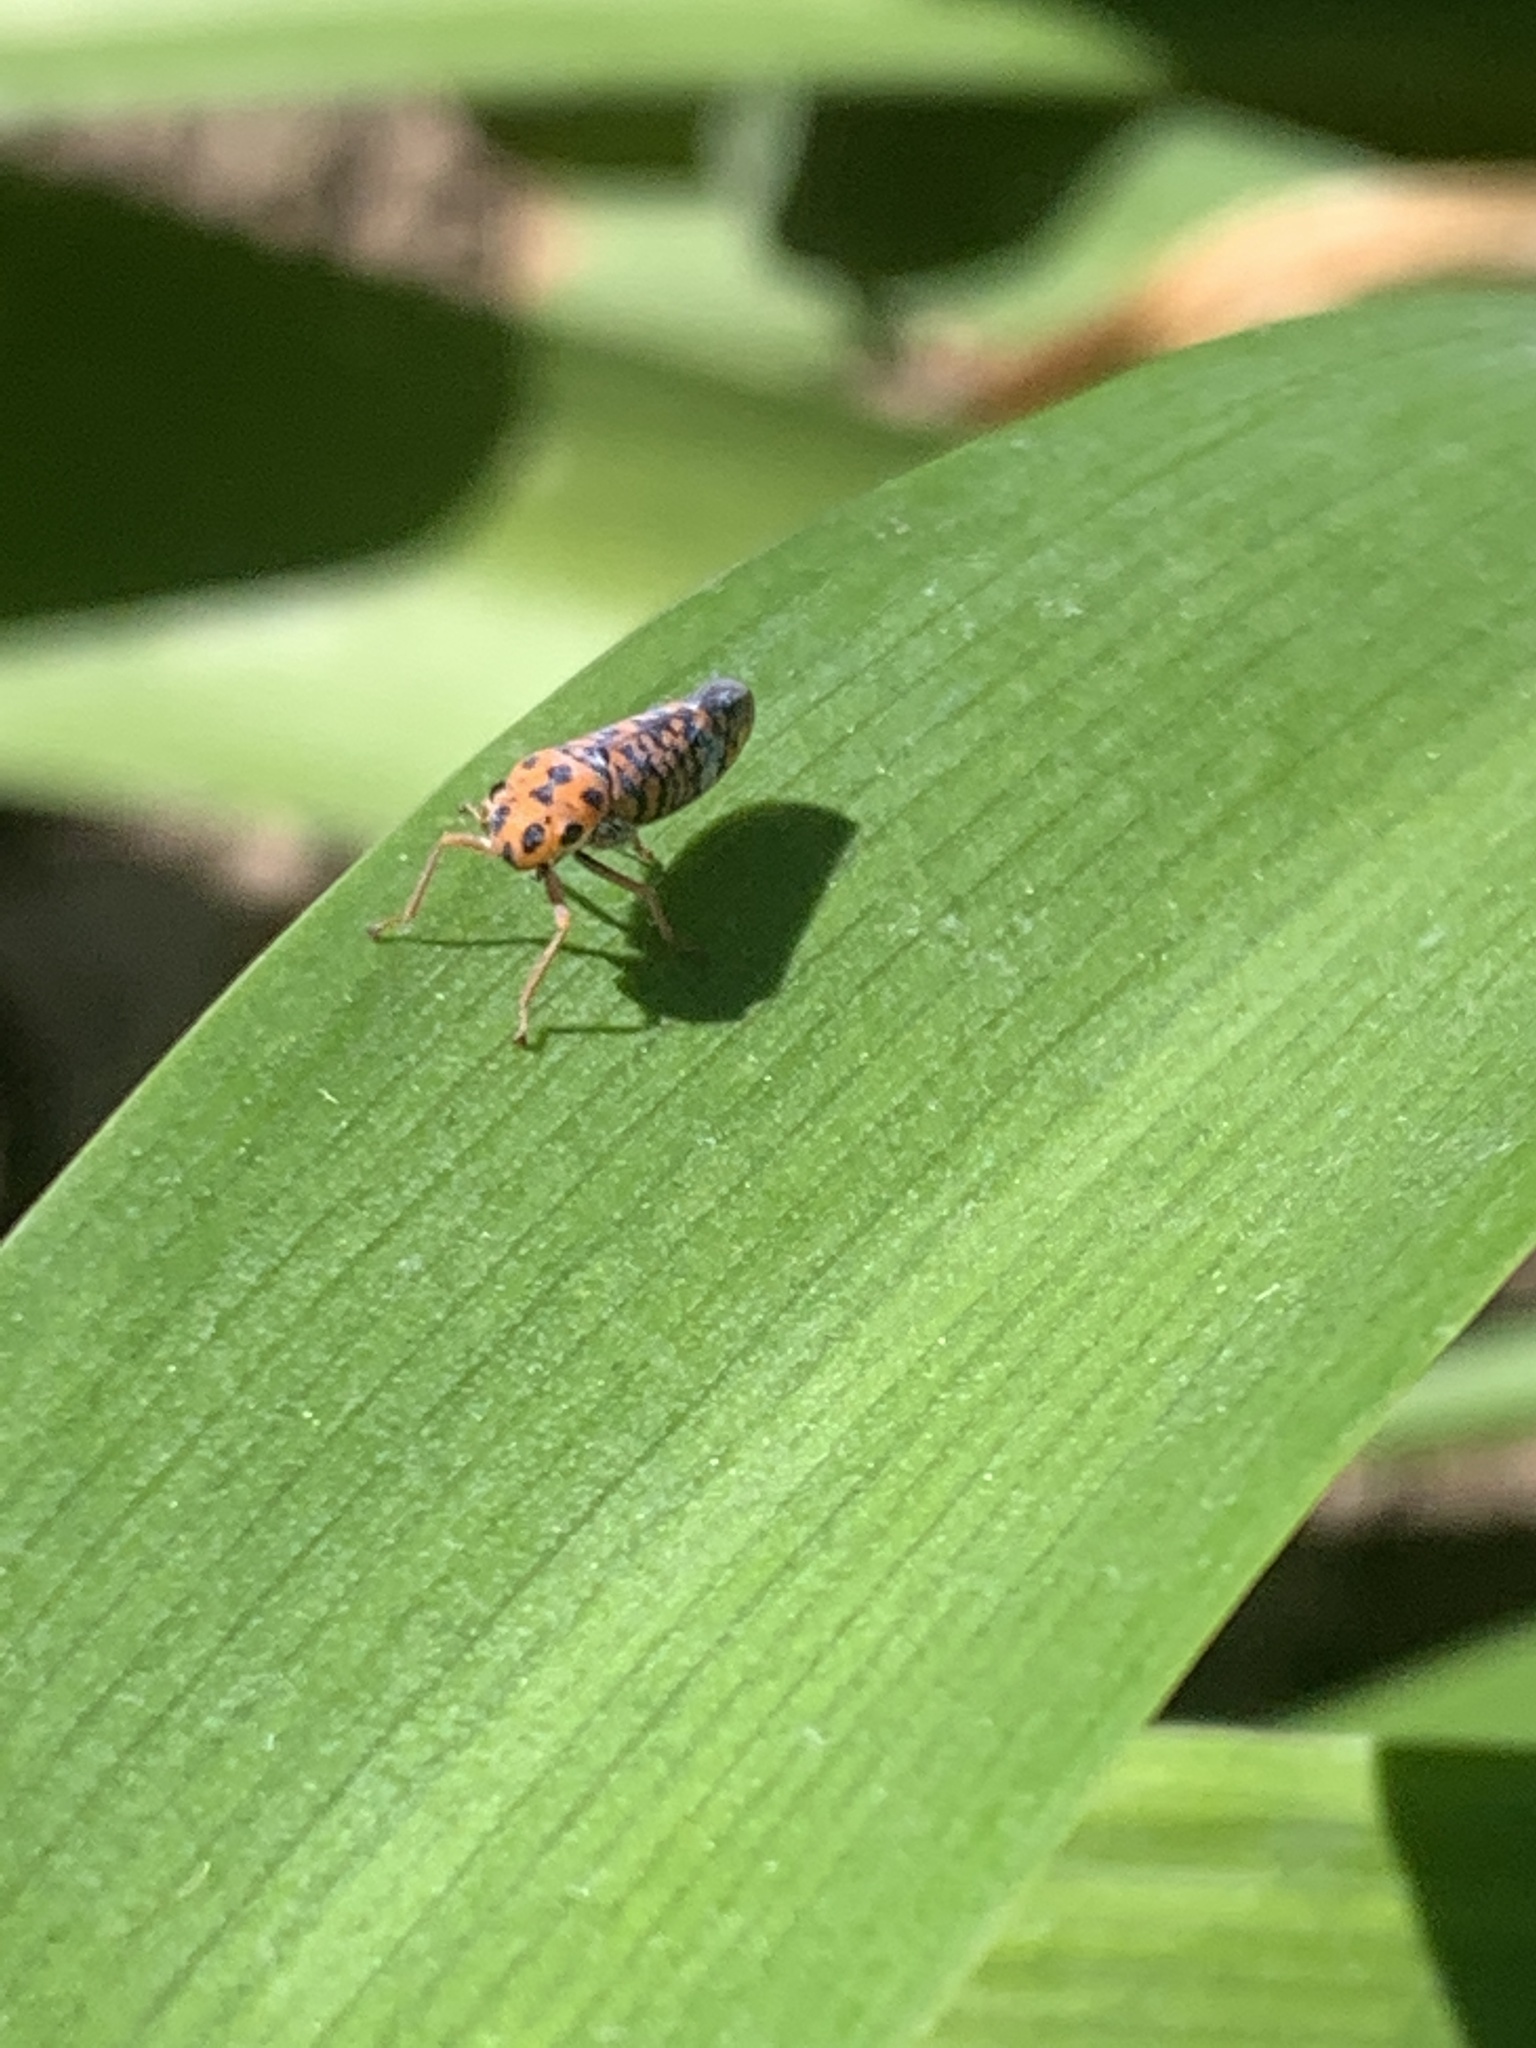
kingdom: Animalia
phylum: Arthropoda
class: Insecta
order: Hemiptera
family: Cicadellidae
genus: Pawiloma
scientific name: Pawiloma victima
